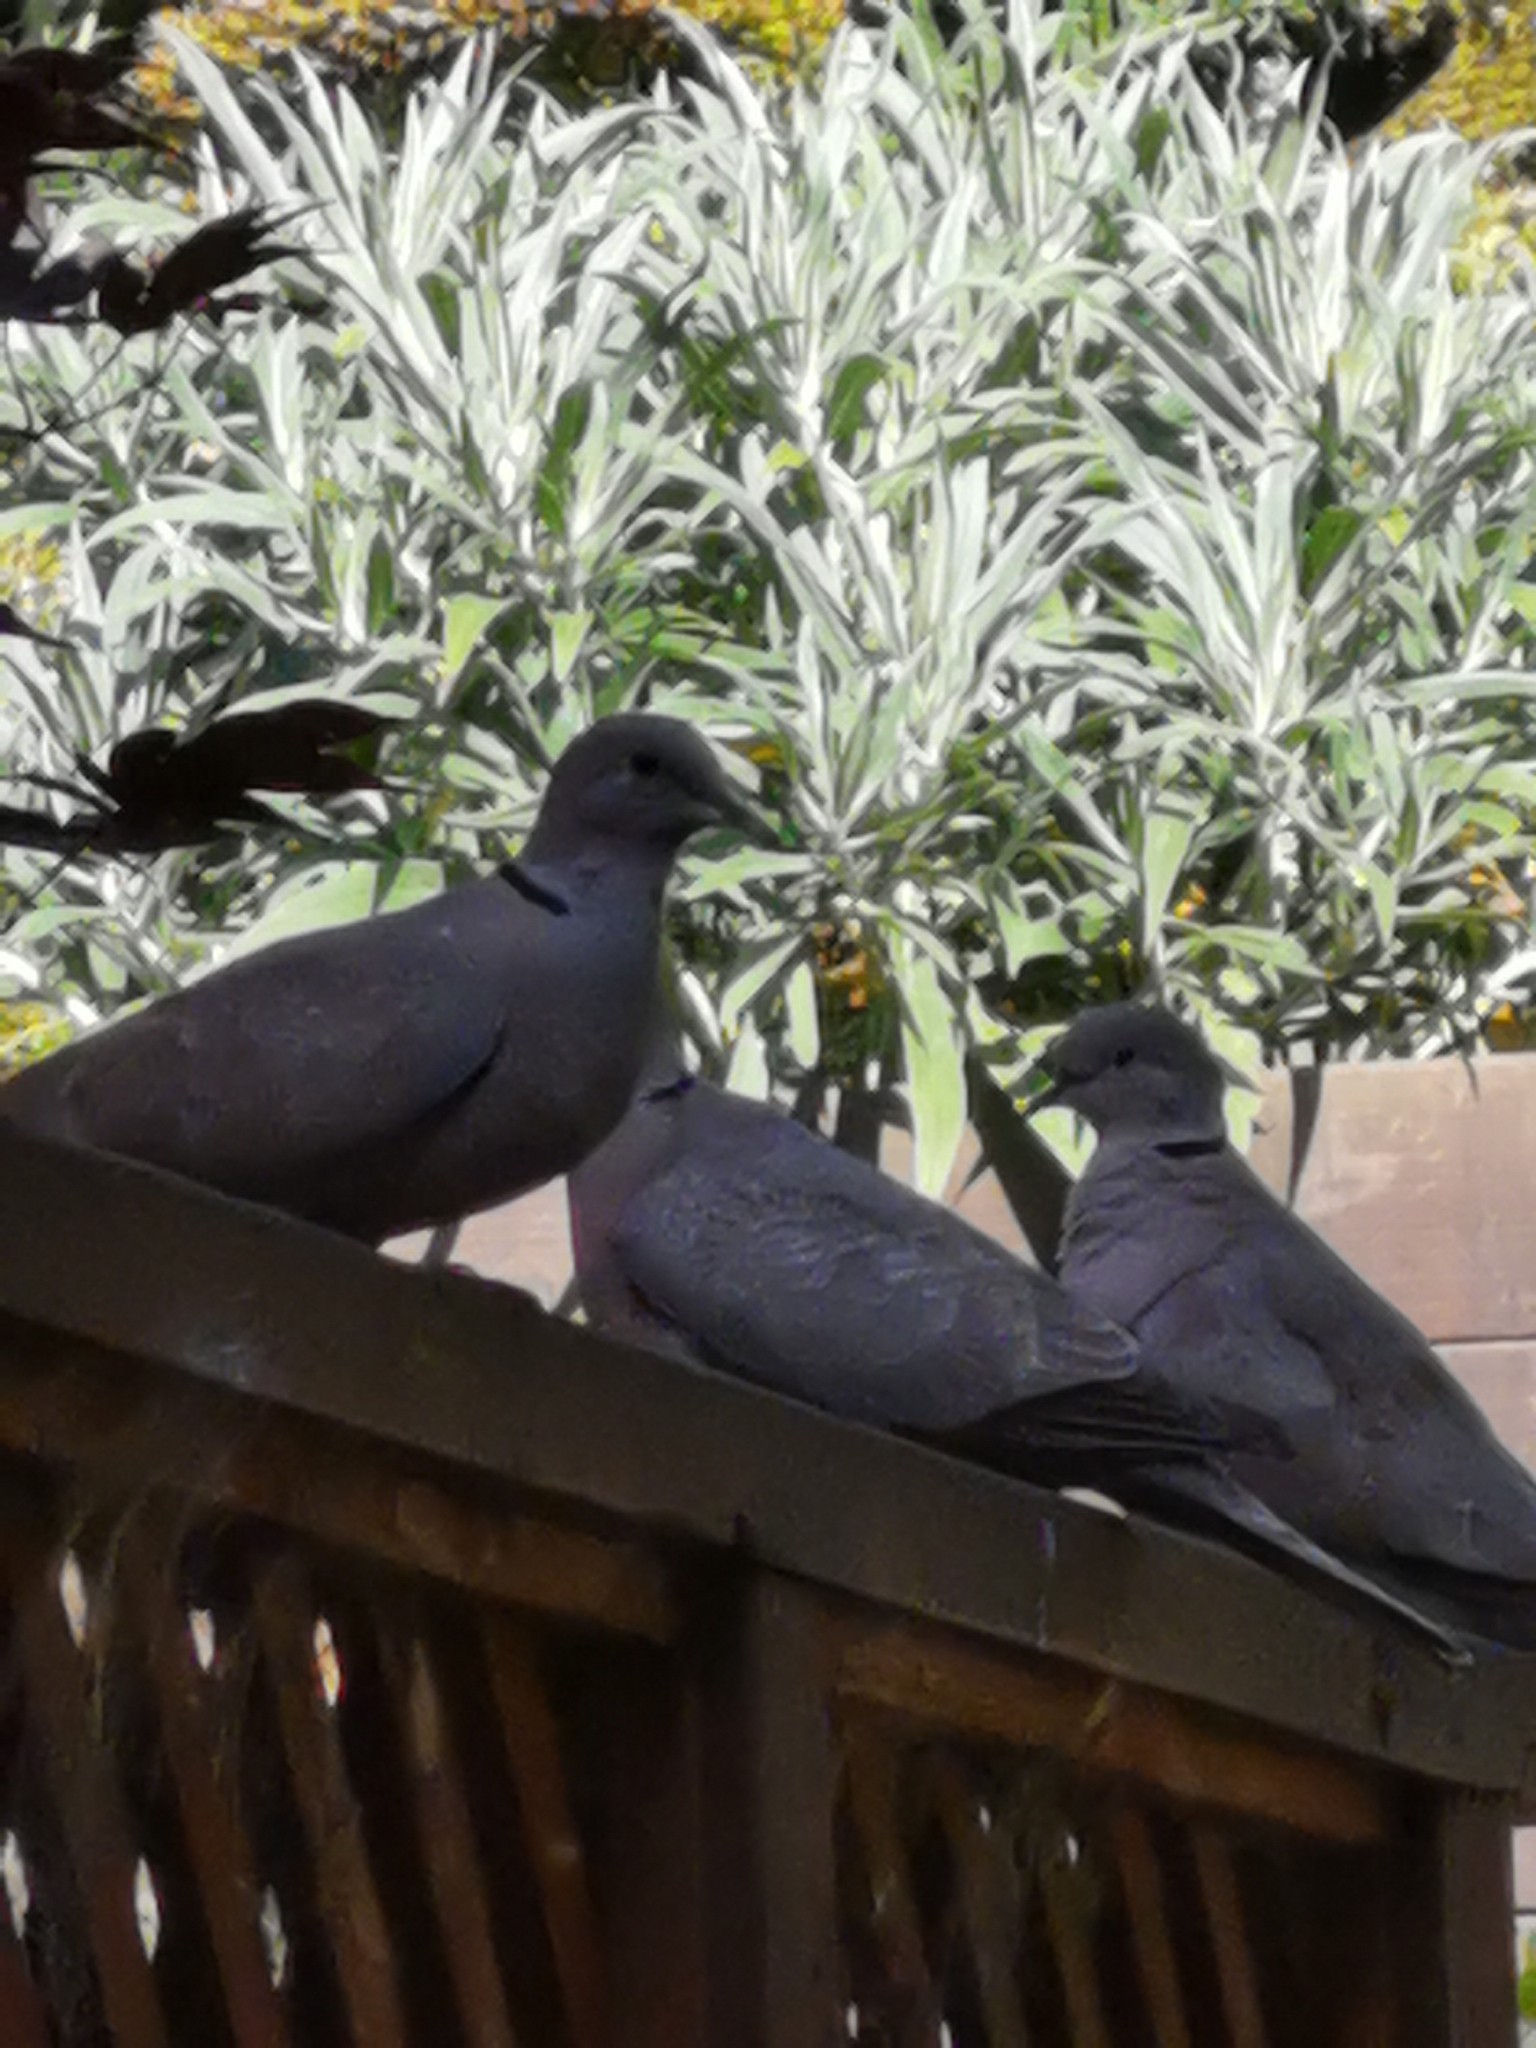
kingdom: Animalia
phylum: Chordata
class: Aves
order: Columbiformes
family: Columbidae
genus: Streptopelia
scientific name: Streptopelia decaocto
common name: Eurasian collared dove
